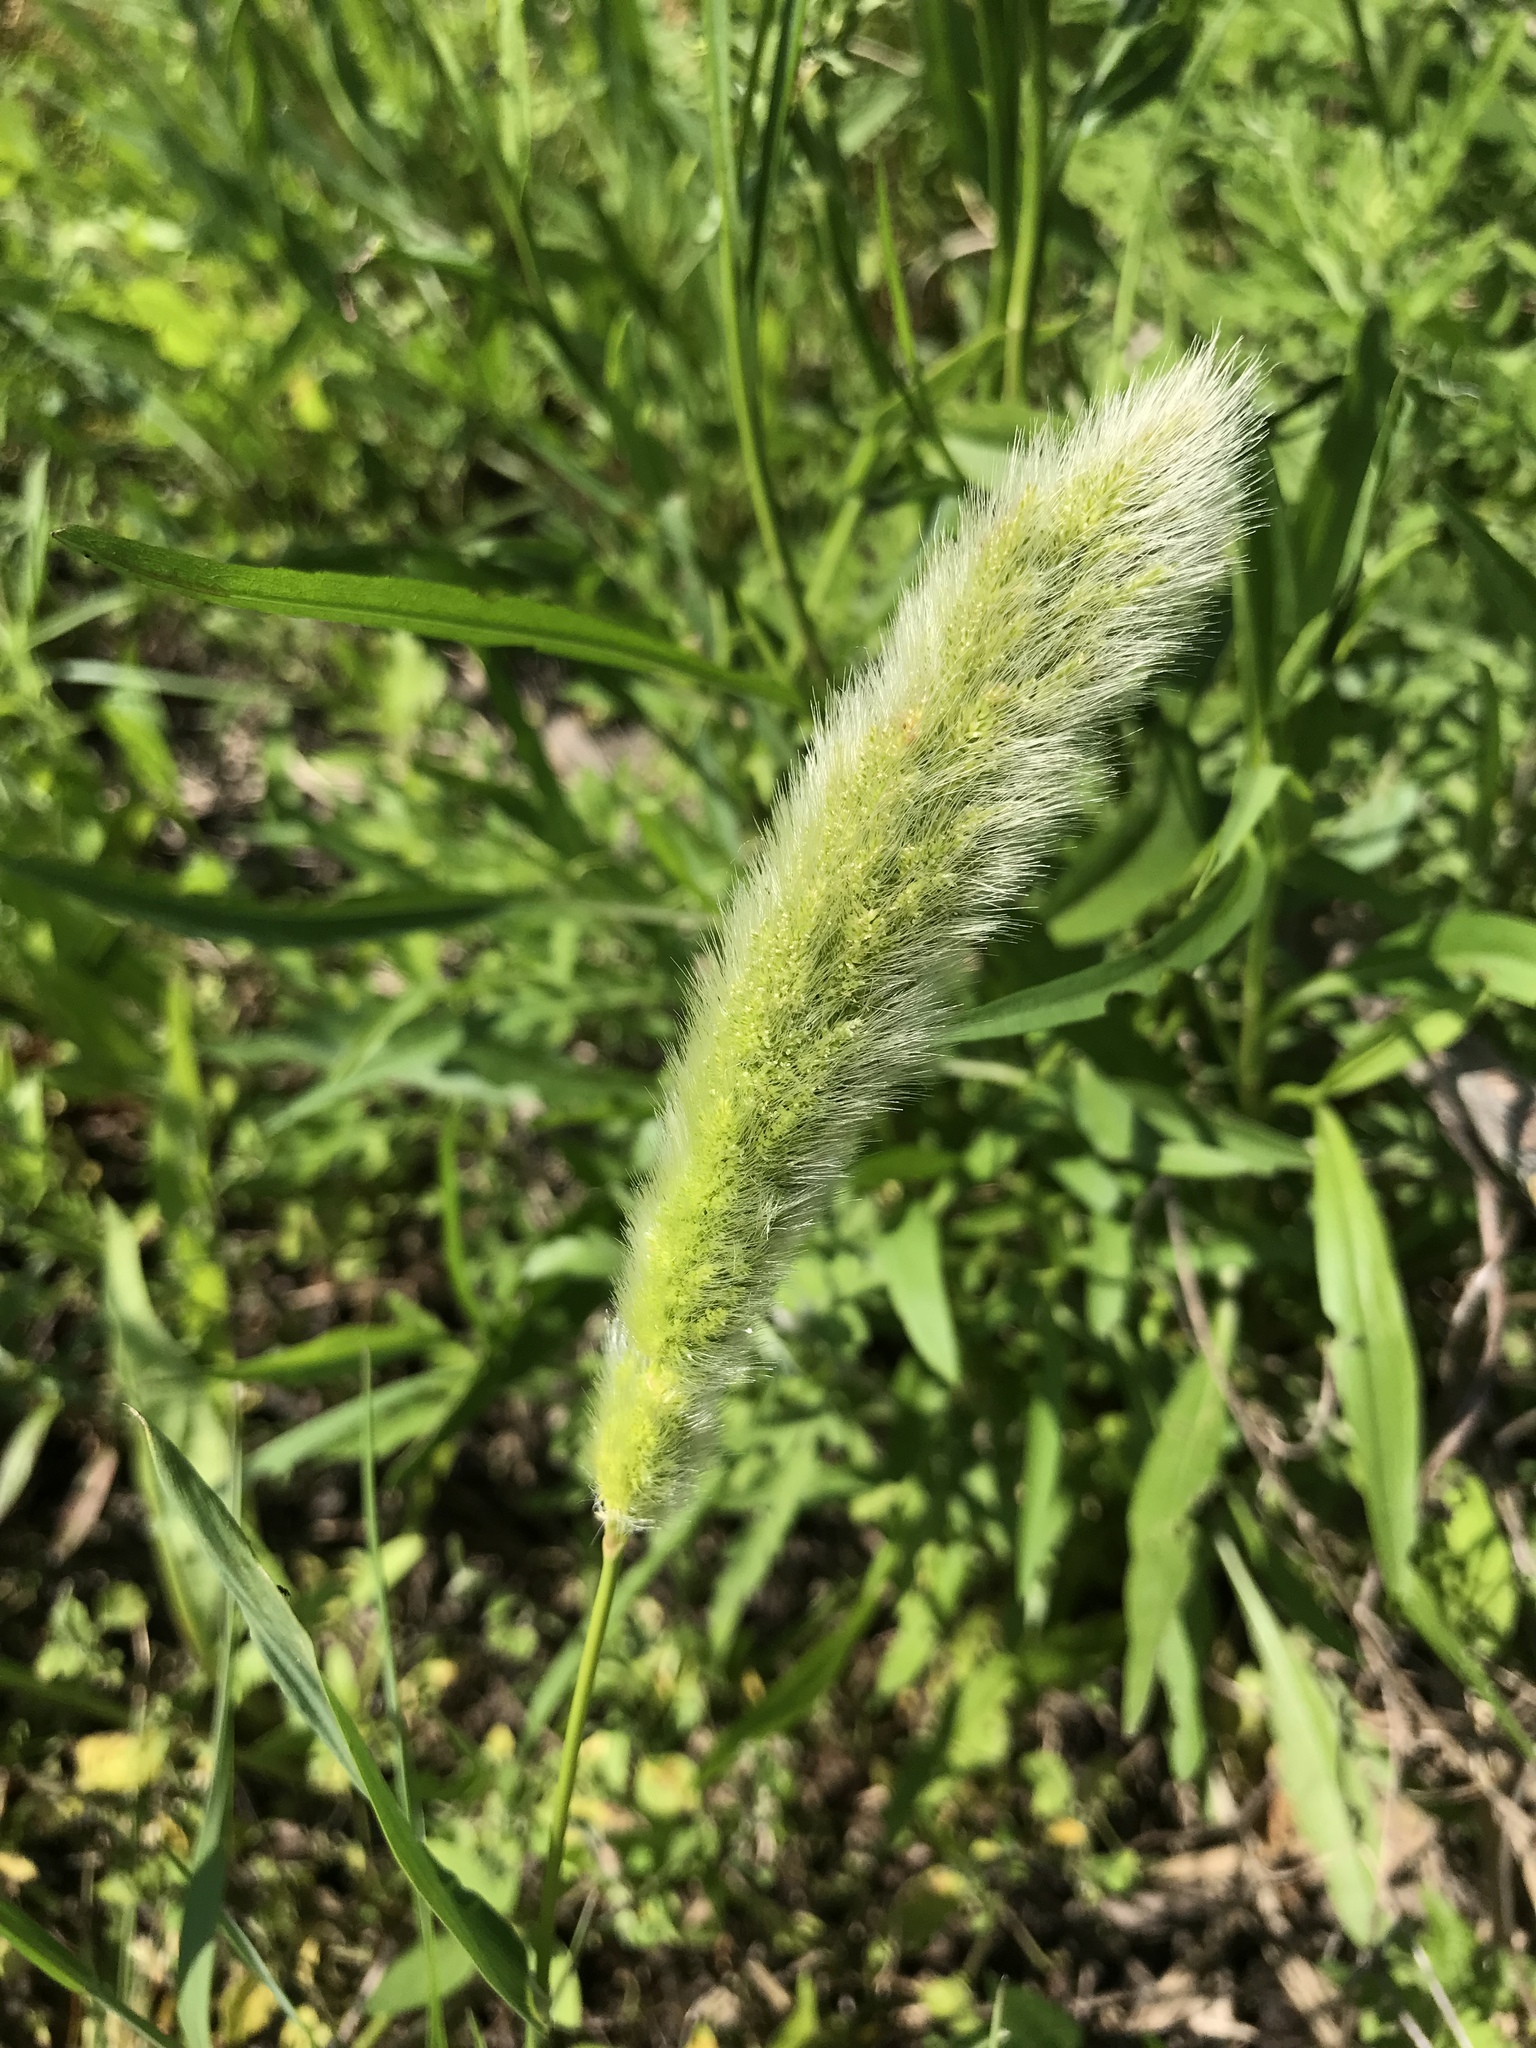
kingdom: Plantae
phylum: Tracheophyta
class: Liliopsida
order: Poales
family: Poaceae
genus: Polypogon
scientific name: Polypogon monspeliensis
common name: Annual rabbitsfoot grass
